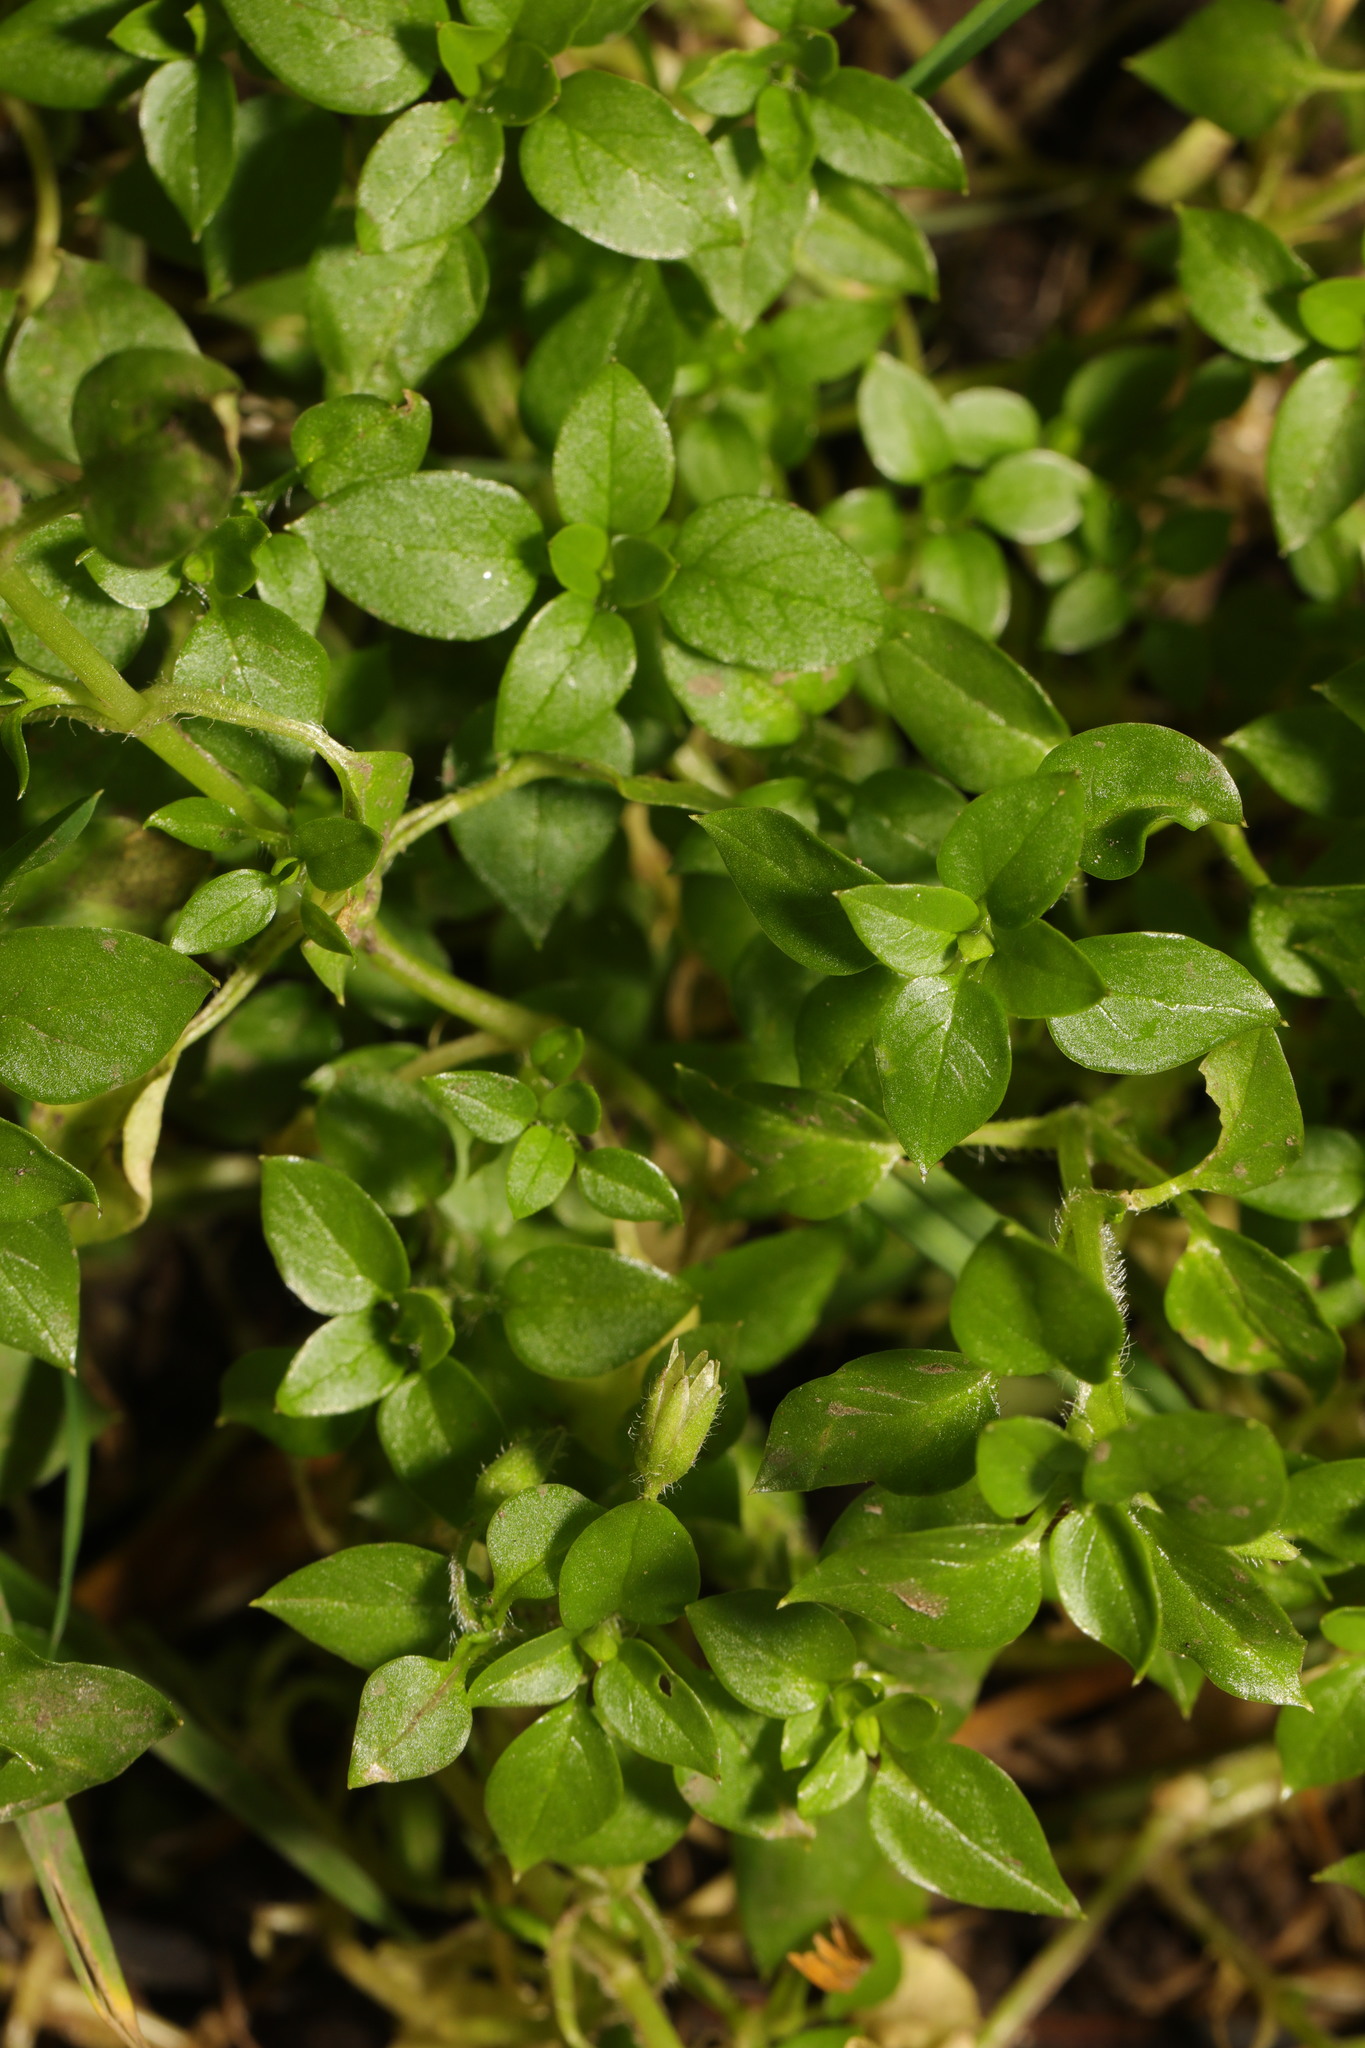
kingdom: Plantae
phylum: Tracheophyta
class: Magnoliopsida
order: Caryophyllales
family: Caryophyllaceae
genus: Stellaria
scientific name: Stellaria media
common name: Common chickweed
